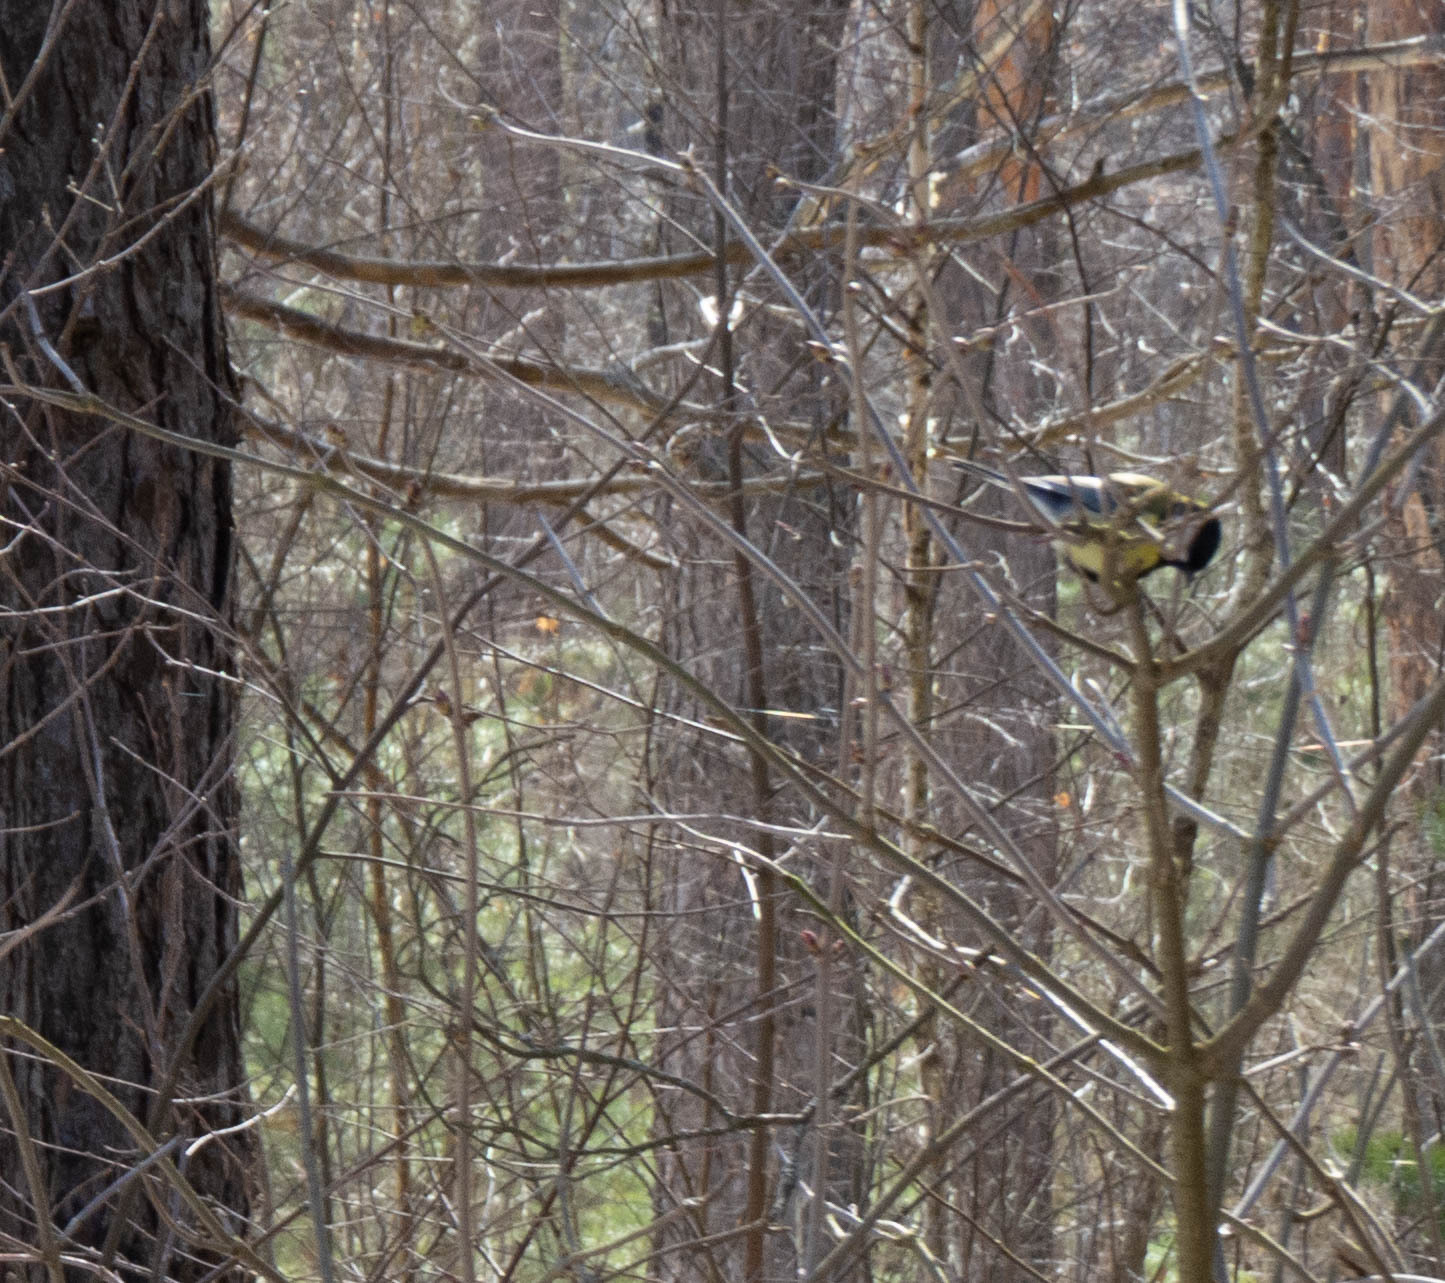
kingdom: Animalia
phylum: Chordata
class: Aves
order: Passeriformes
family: Paridae
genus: Parus
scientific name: Parus major
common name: Great tit
